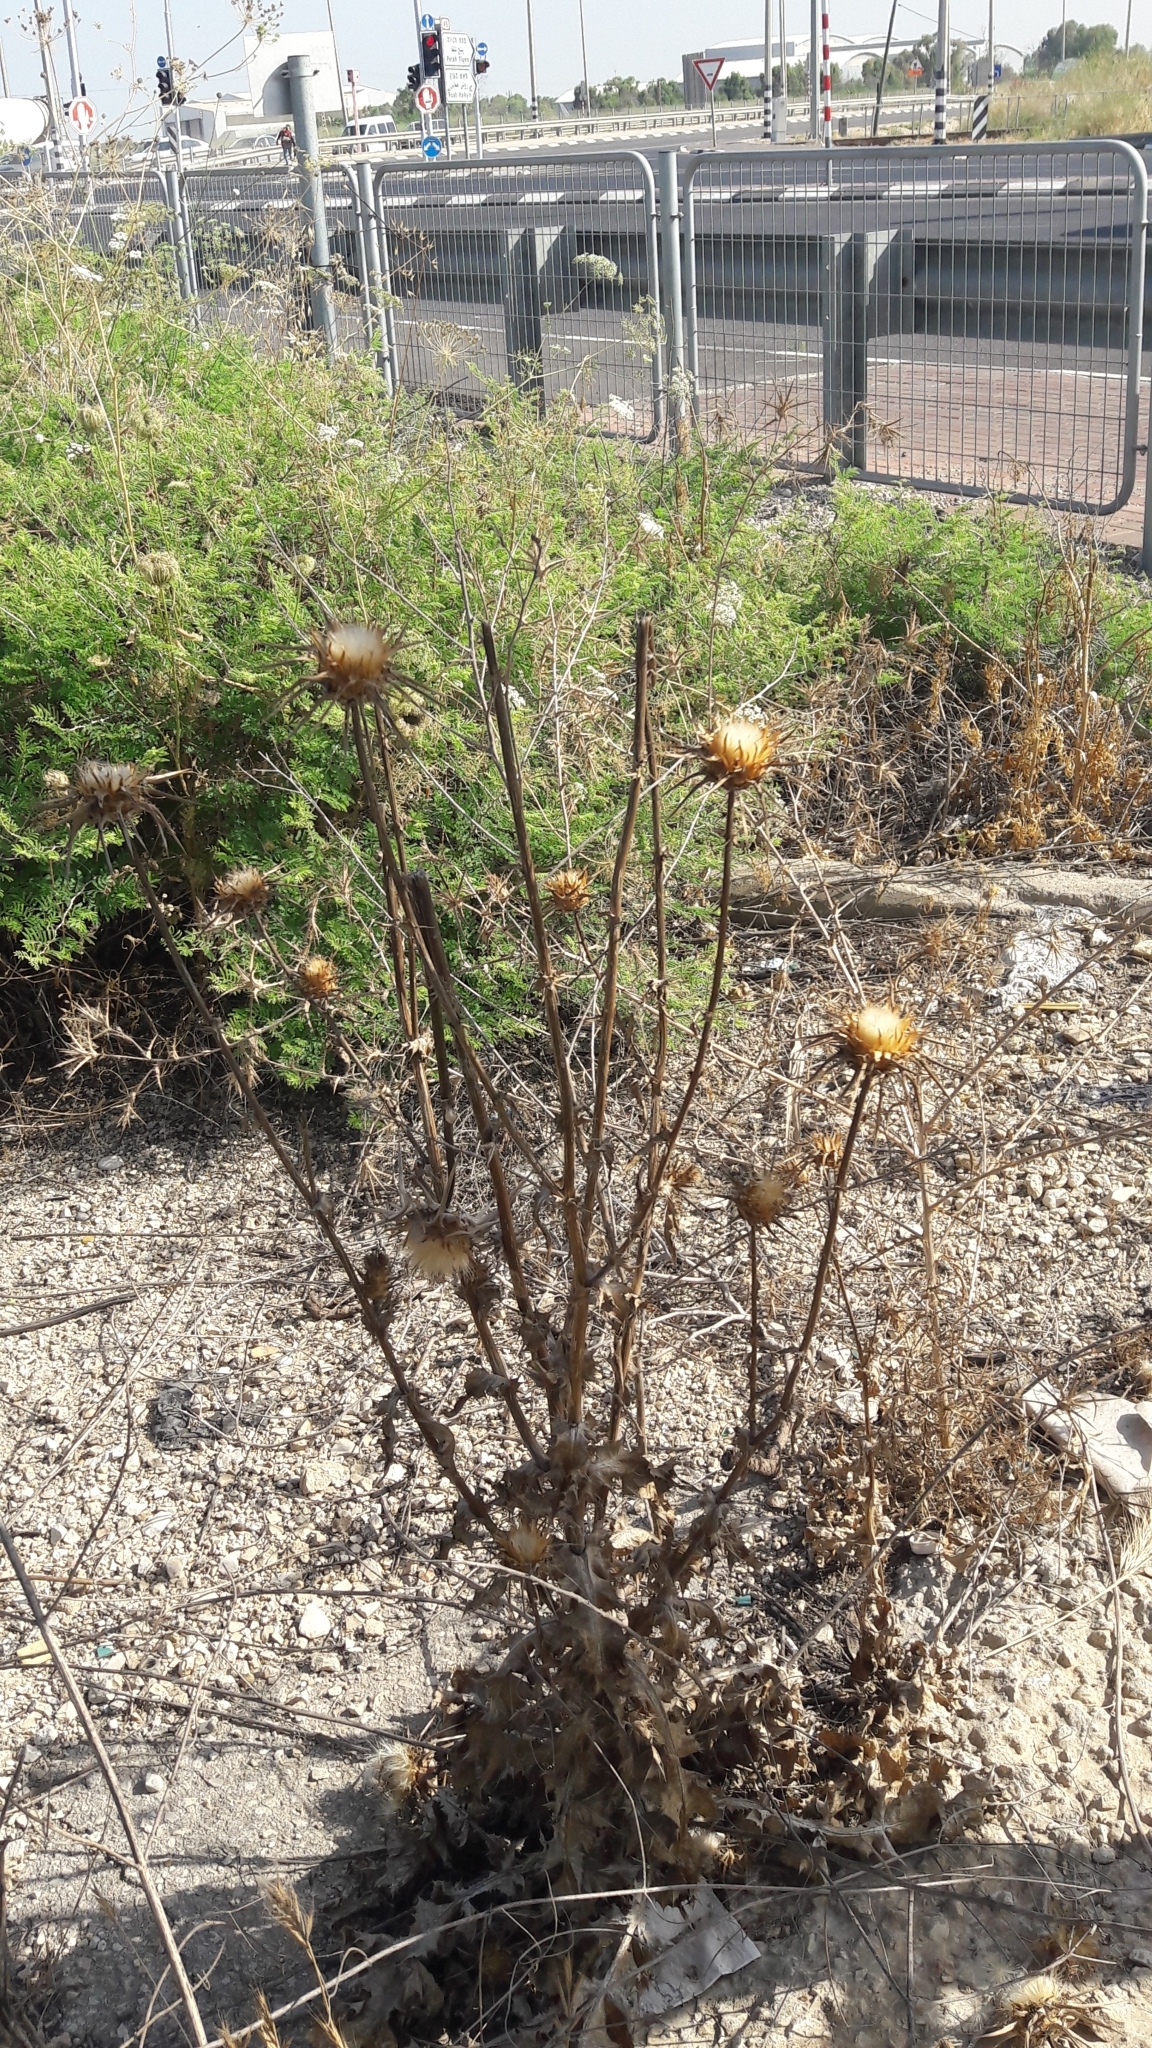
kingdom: Plantae
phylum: Tracheophyta
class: Magnoliopsida
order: Asterales
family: Asteraceae
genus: Silybum
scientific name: Silybum marianum
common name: Milk thistle
